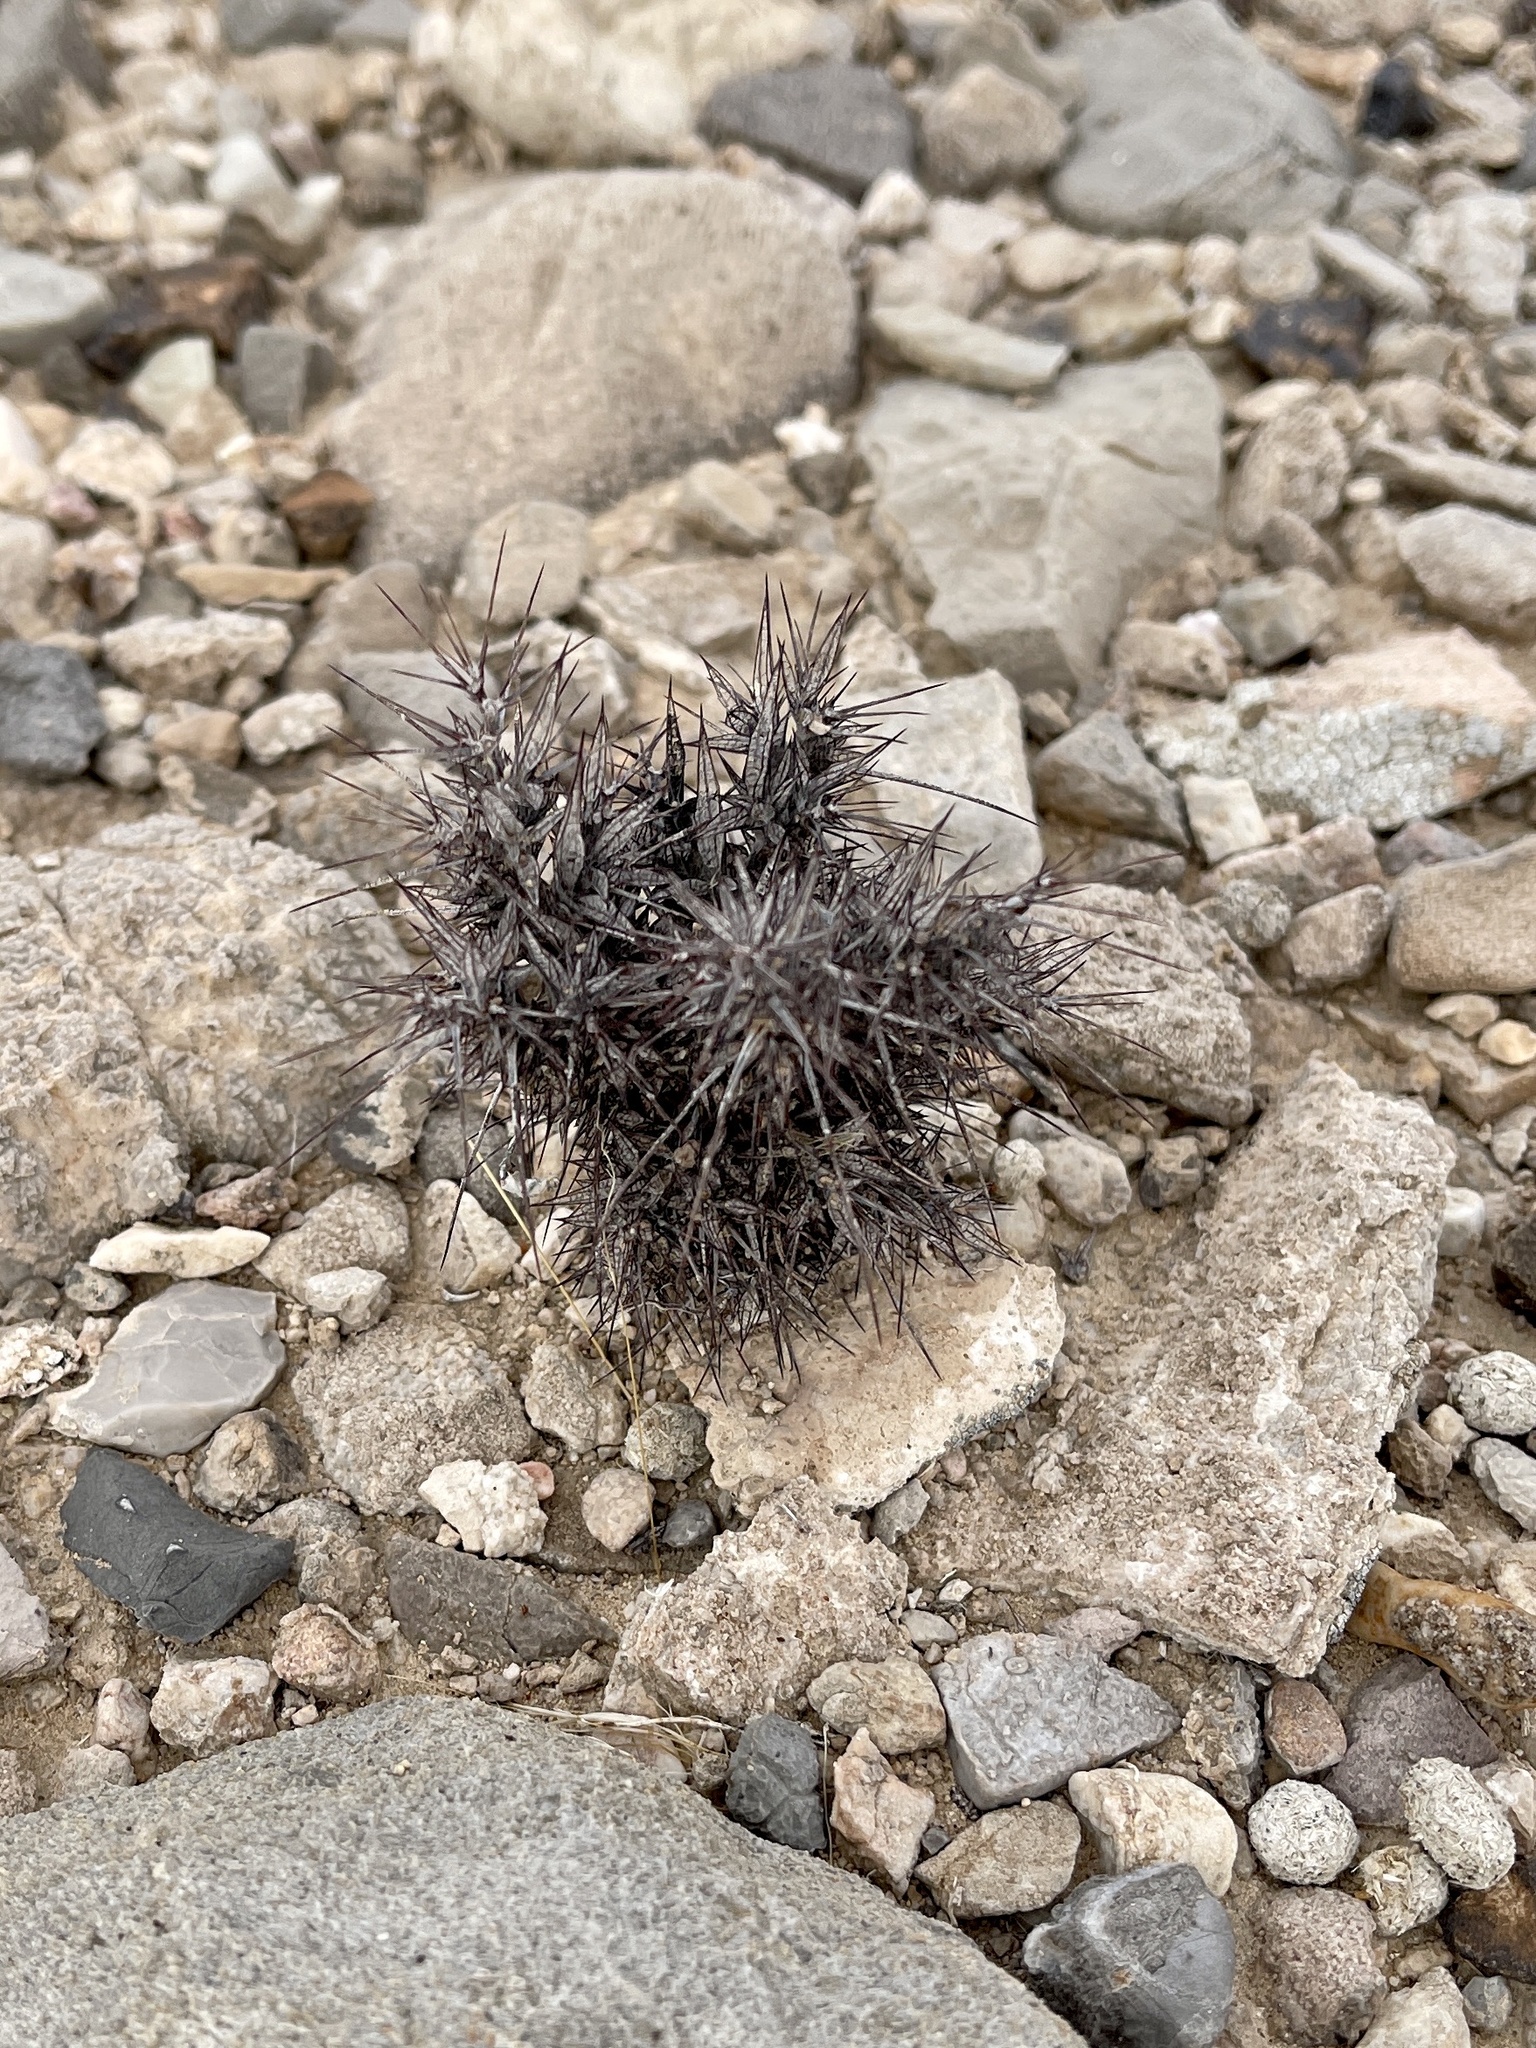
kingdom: Plantae
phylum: Tracheophyta
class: Magnoliopsida
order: Caryophyllales
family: Polygonaceae
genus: Chorizanthe
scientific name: Chorizanthe rigida
